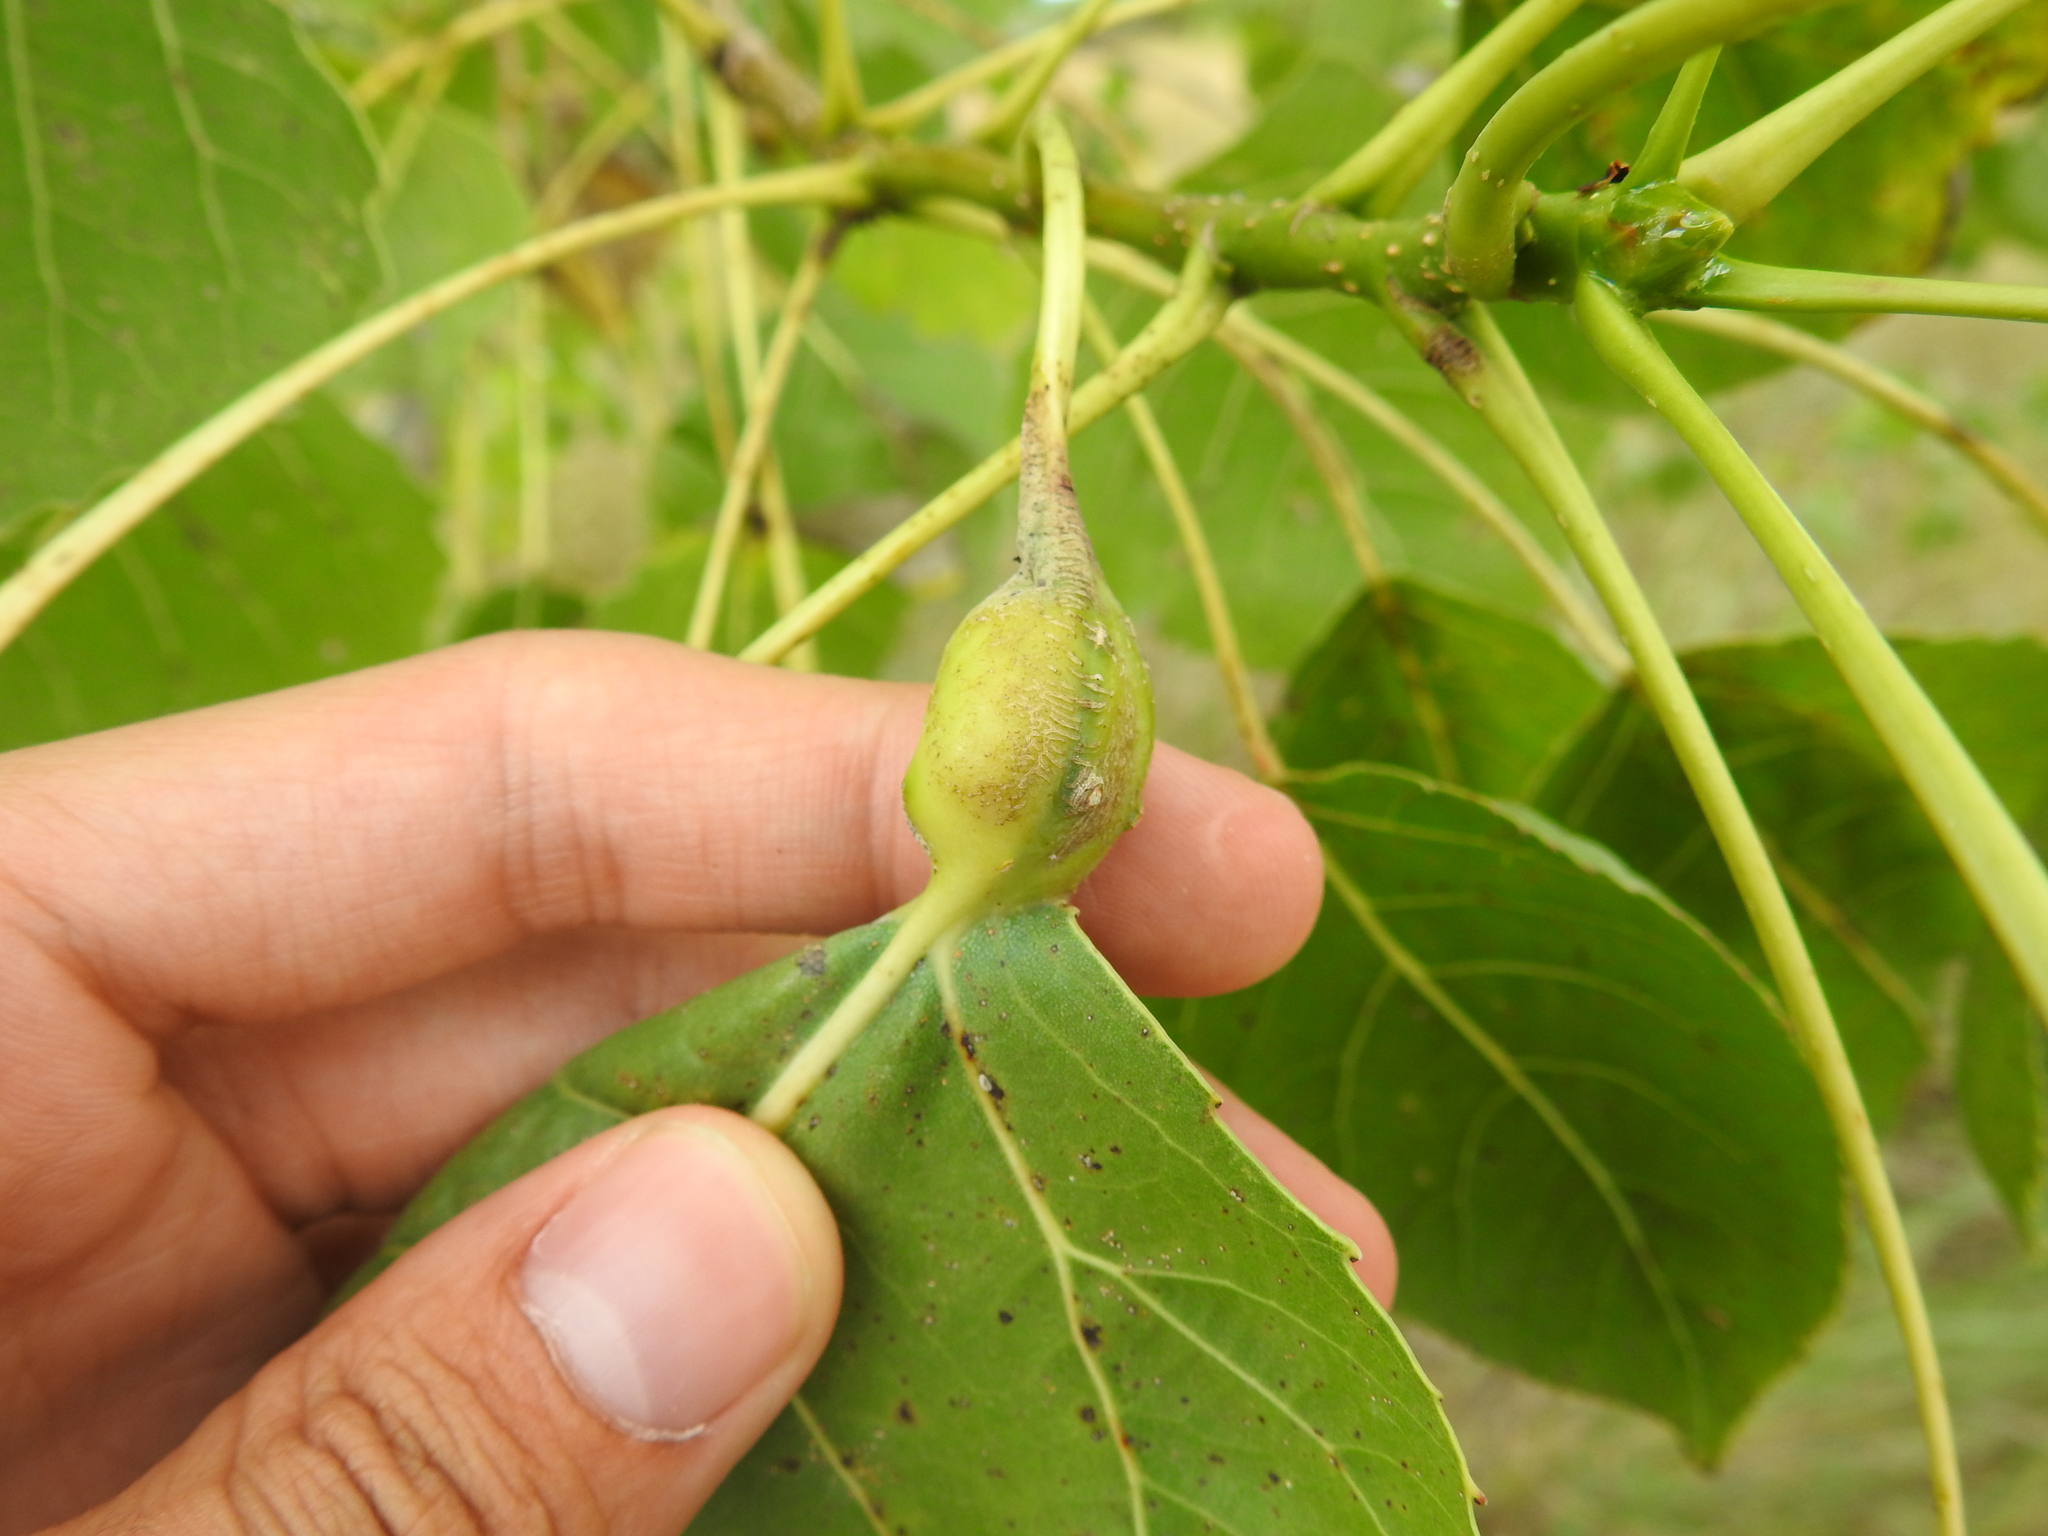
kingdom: Animalia
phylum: Arthropoda
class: Insecta
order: Hemiptera
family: Aphididae
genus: Pemphigus
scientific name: Pemphigus obesinymphae
